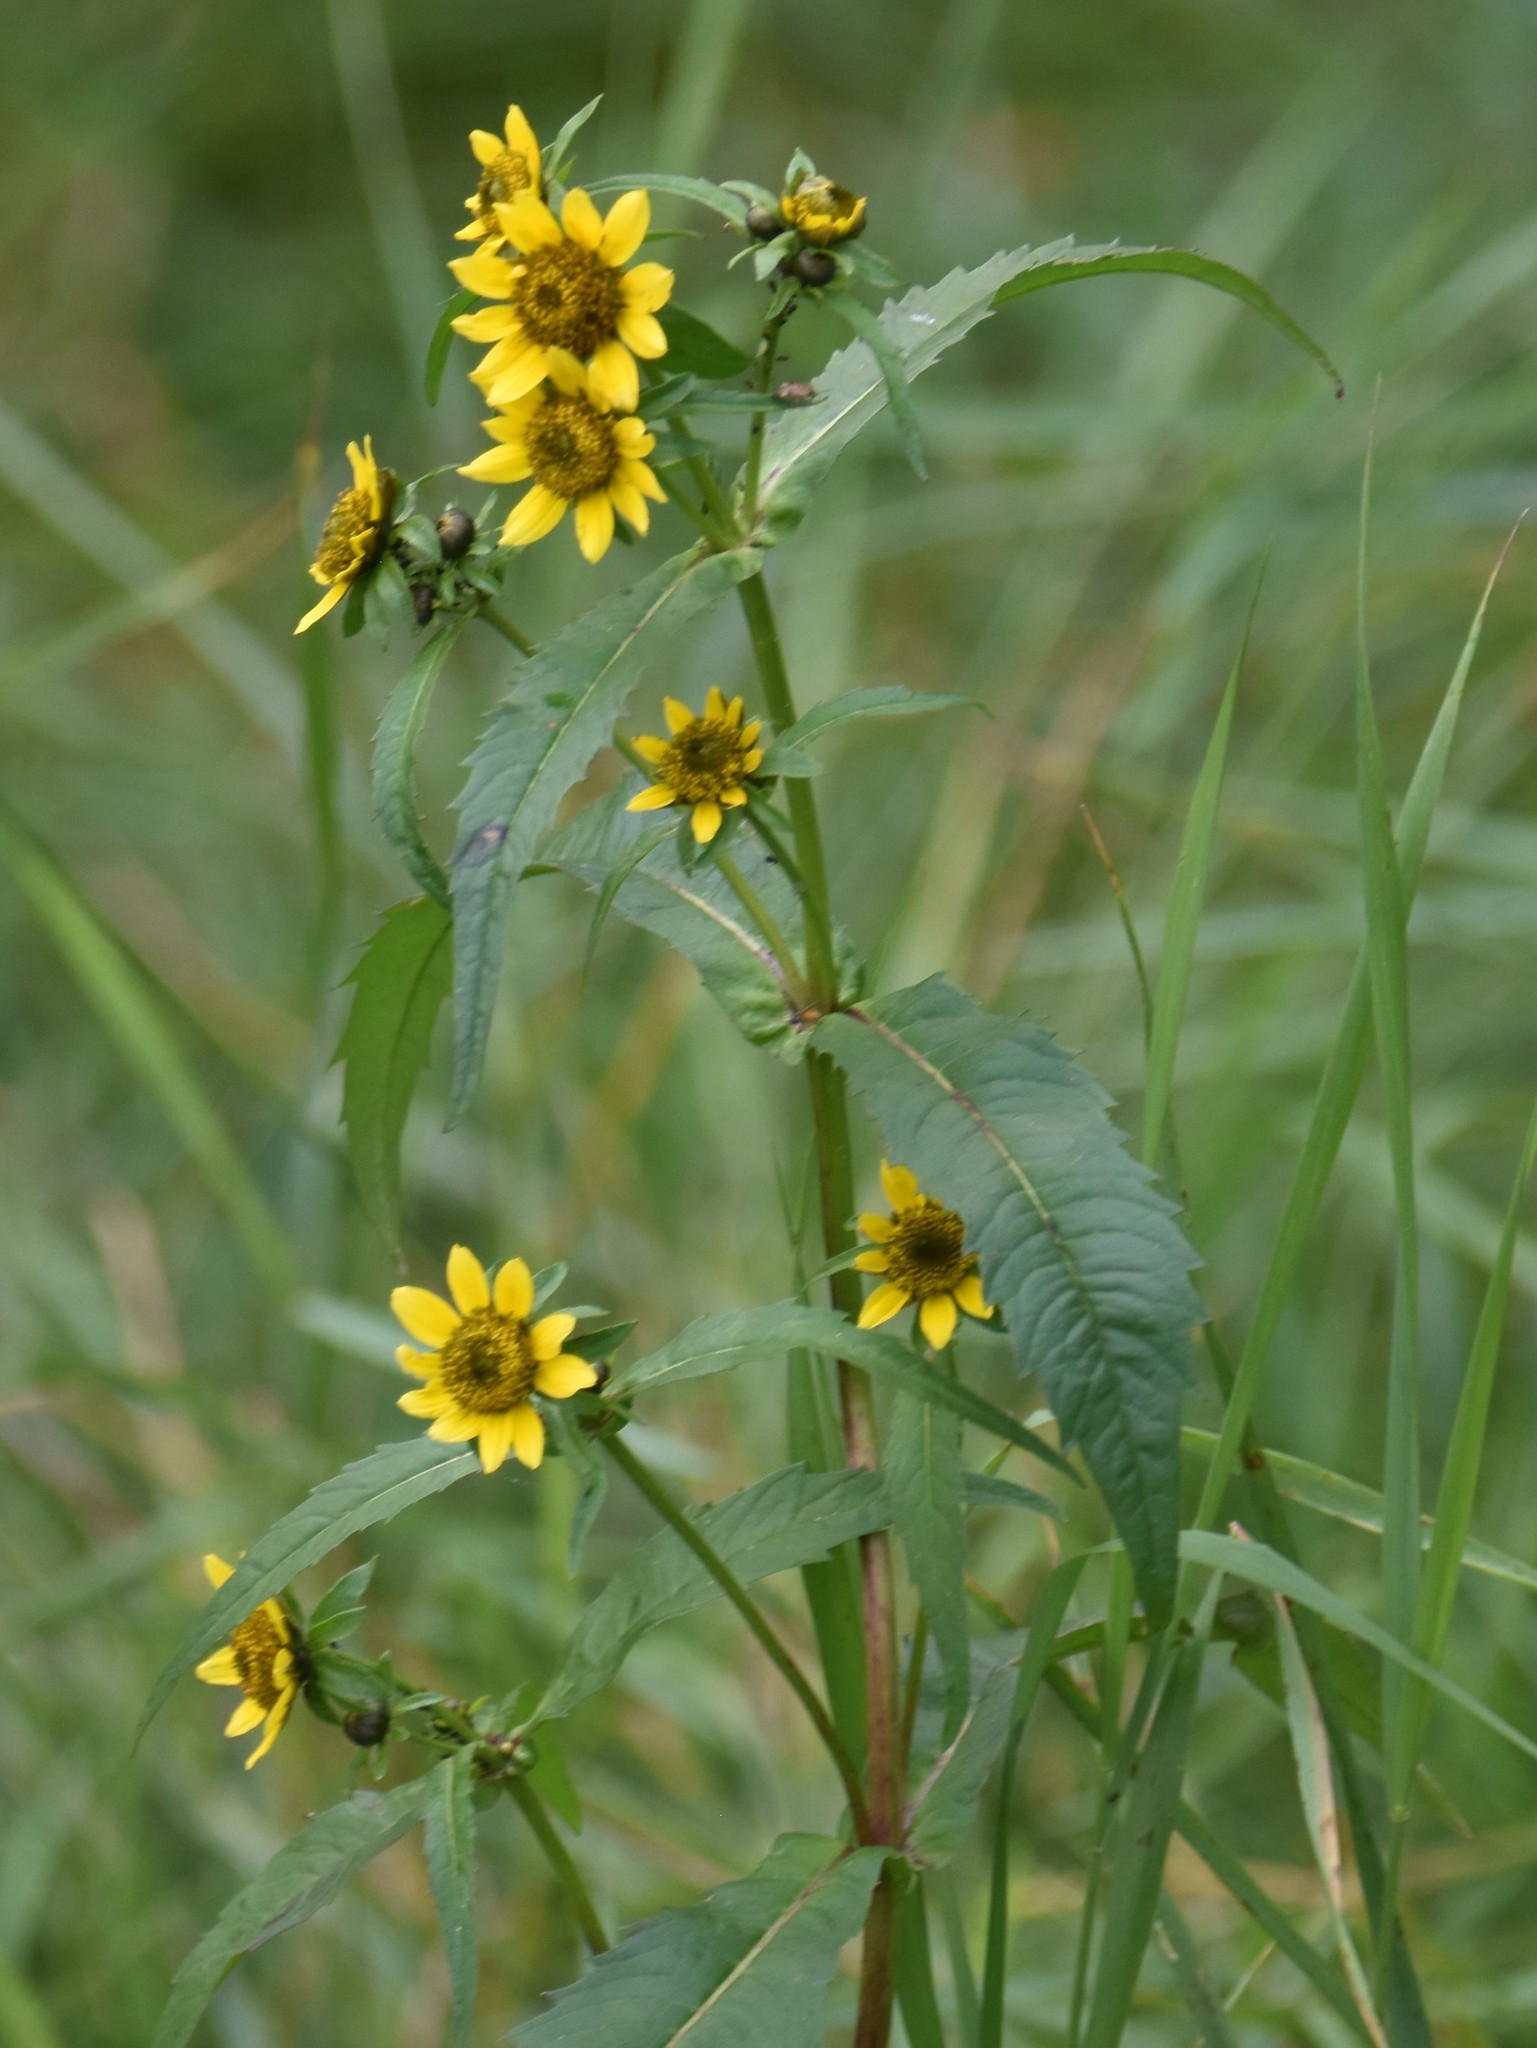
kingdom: Plantae
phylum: Tracheophyta
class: Magnoliopsida
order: Asterales
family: Asteraceae
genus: Bidens
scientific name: Bidens cernua
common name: Nodding bur-marigold
